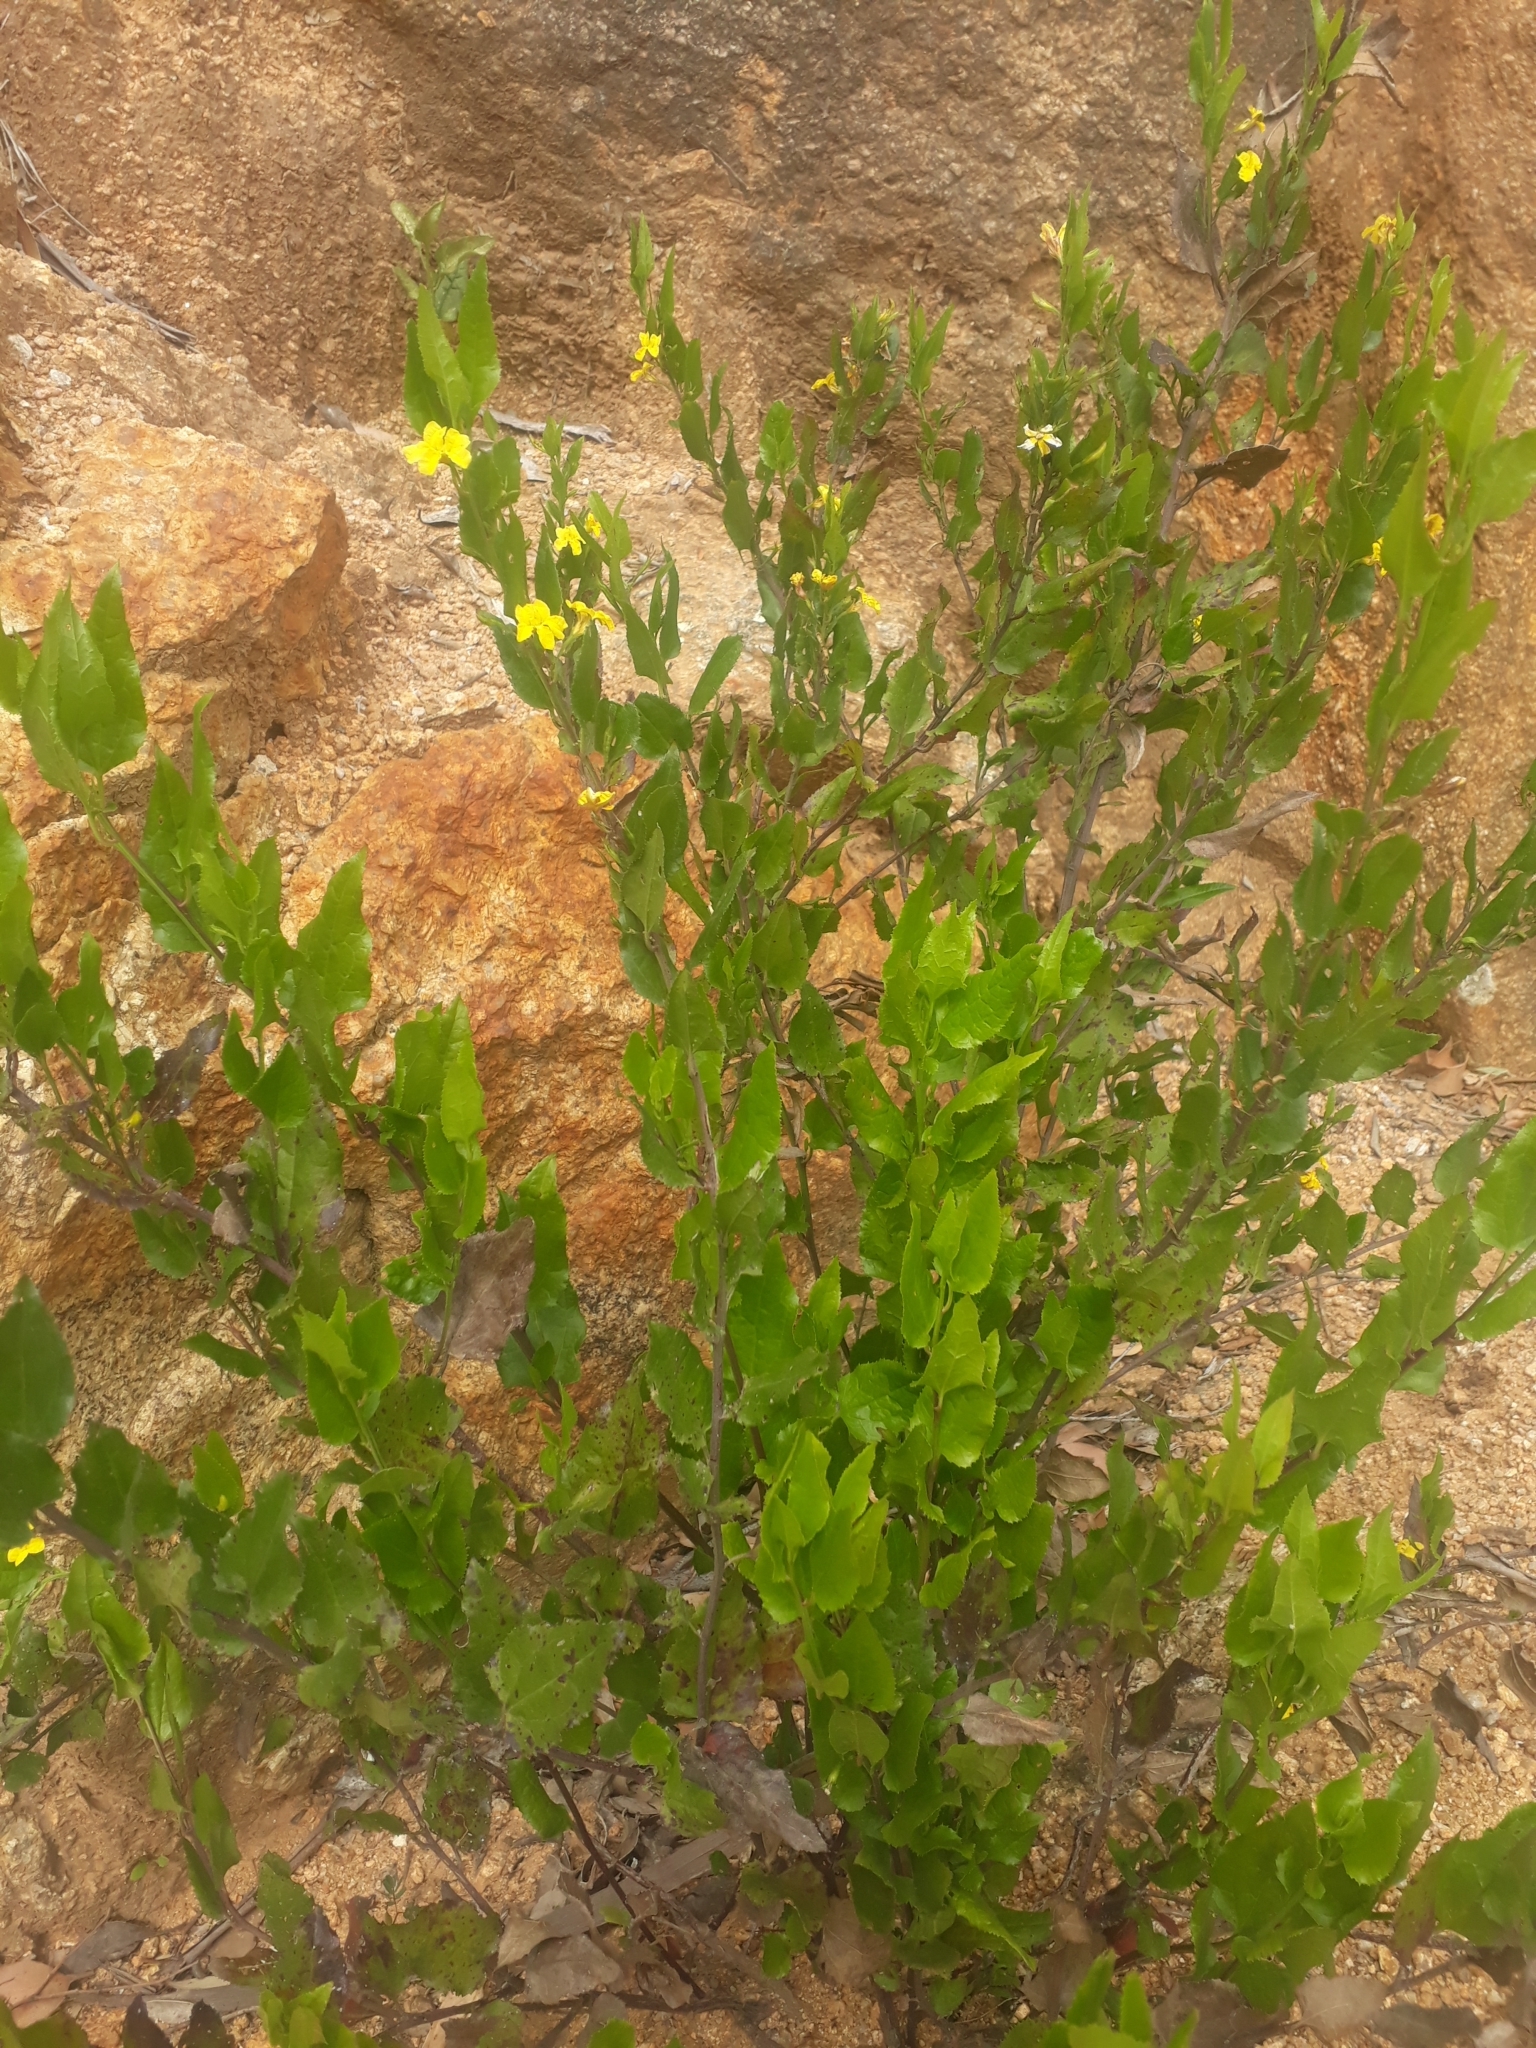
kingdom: Plantae
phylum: Tracheophyta
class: Magnoliopsida
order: Asterales
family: Goodeniaceae
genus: Goodenia
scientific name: Goodenia ovata
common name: Hop goodenia
